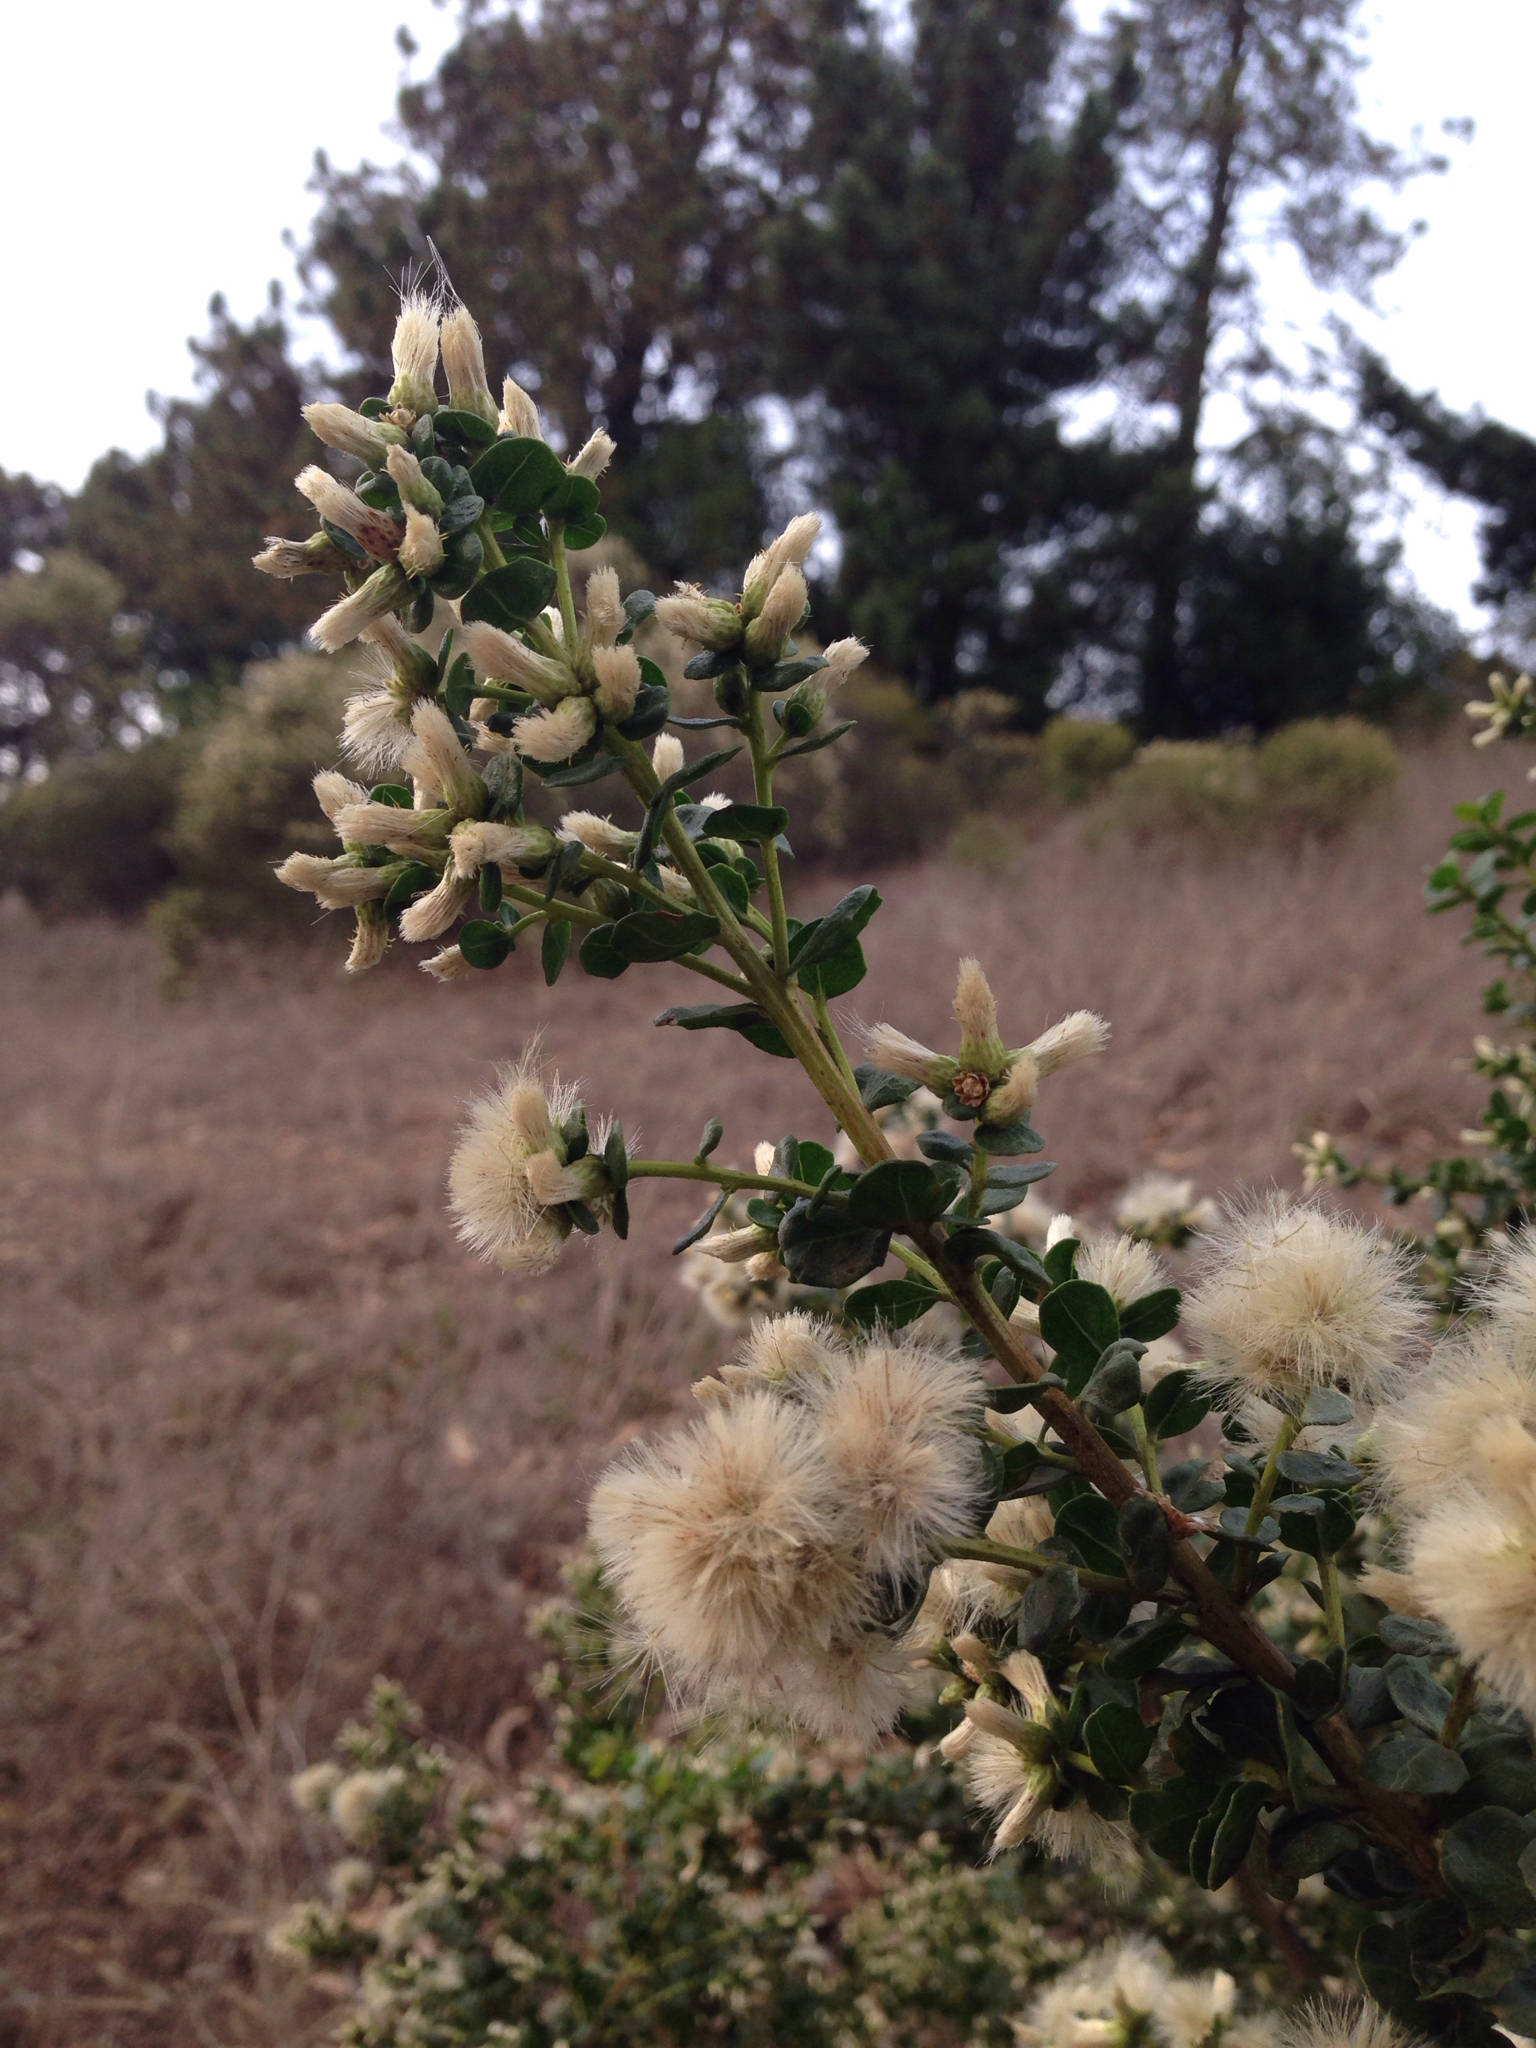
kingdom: Plantae
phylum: Tracheophyta
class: Magnoliopsida
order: Asterales
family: Asteraceae
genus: Baccharis
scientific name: Baccharis pilularis
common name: Coyotebrush
